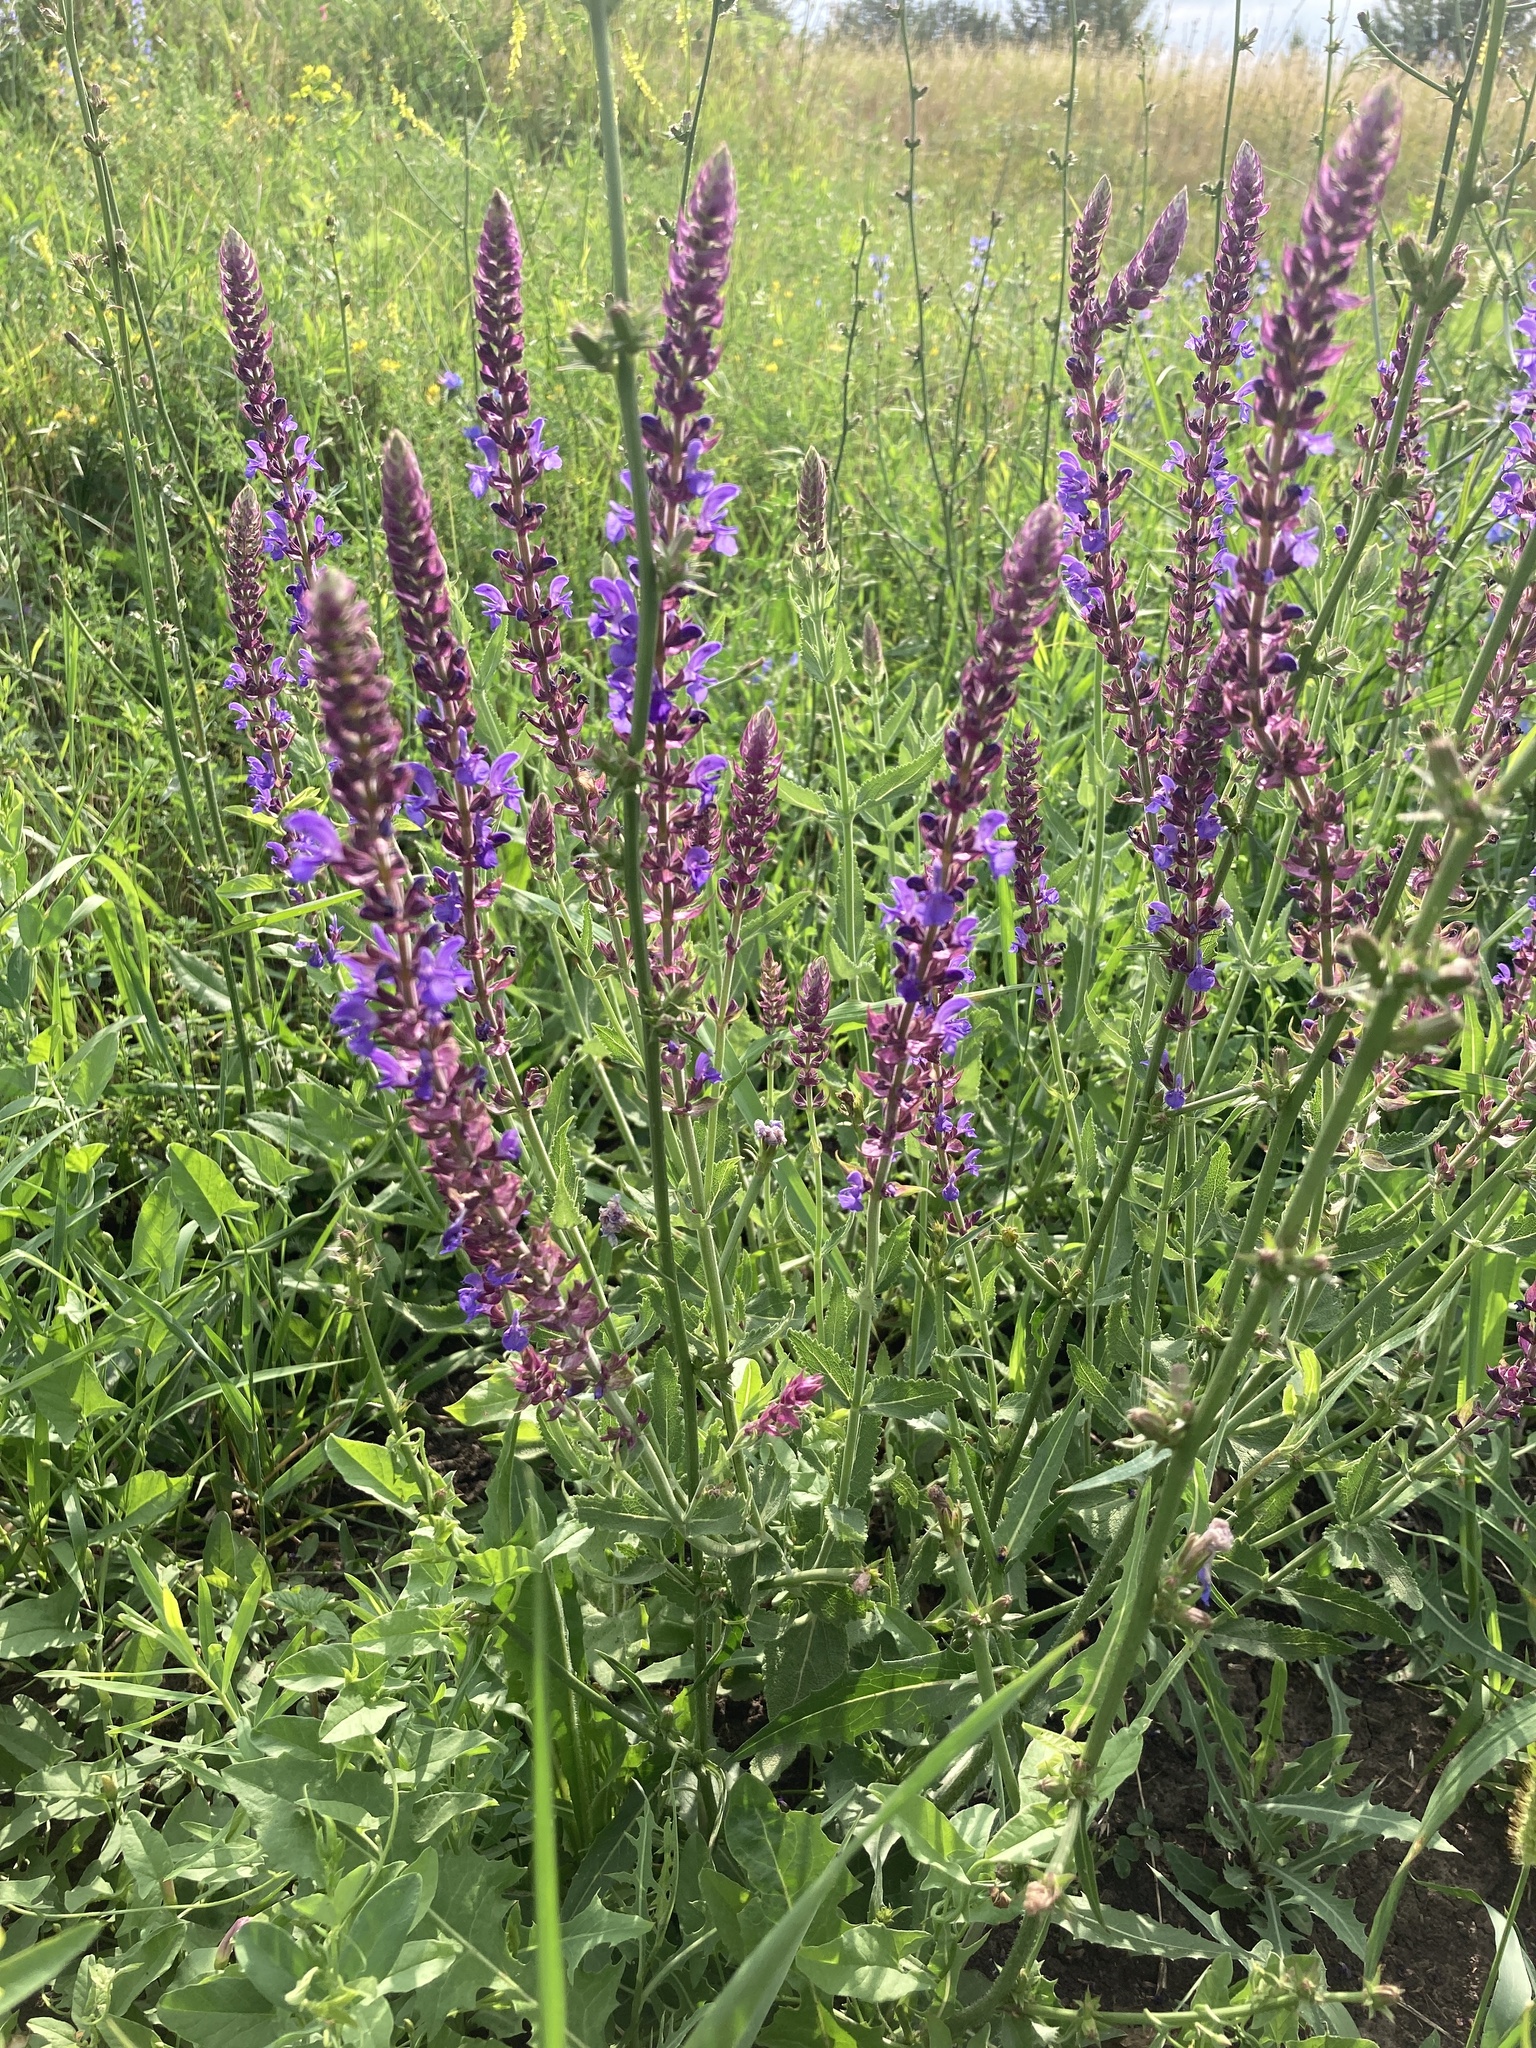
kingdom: Plantae
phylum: Tracheophyta
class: Magnoliopsida
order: Lamiales
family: Lamiaceae
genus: Salvia
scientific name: Salvia nemorosa
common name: Balkan clary
